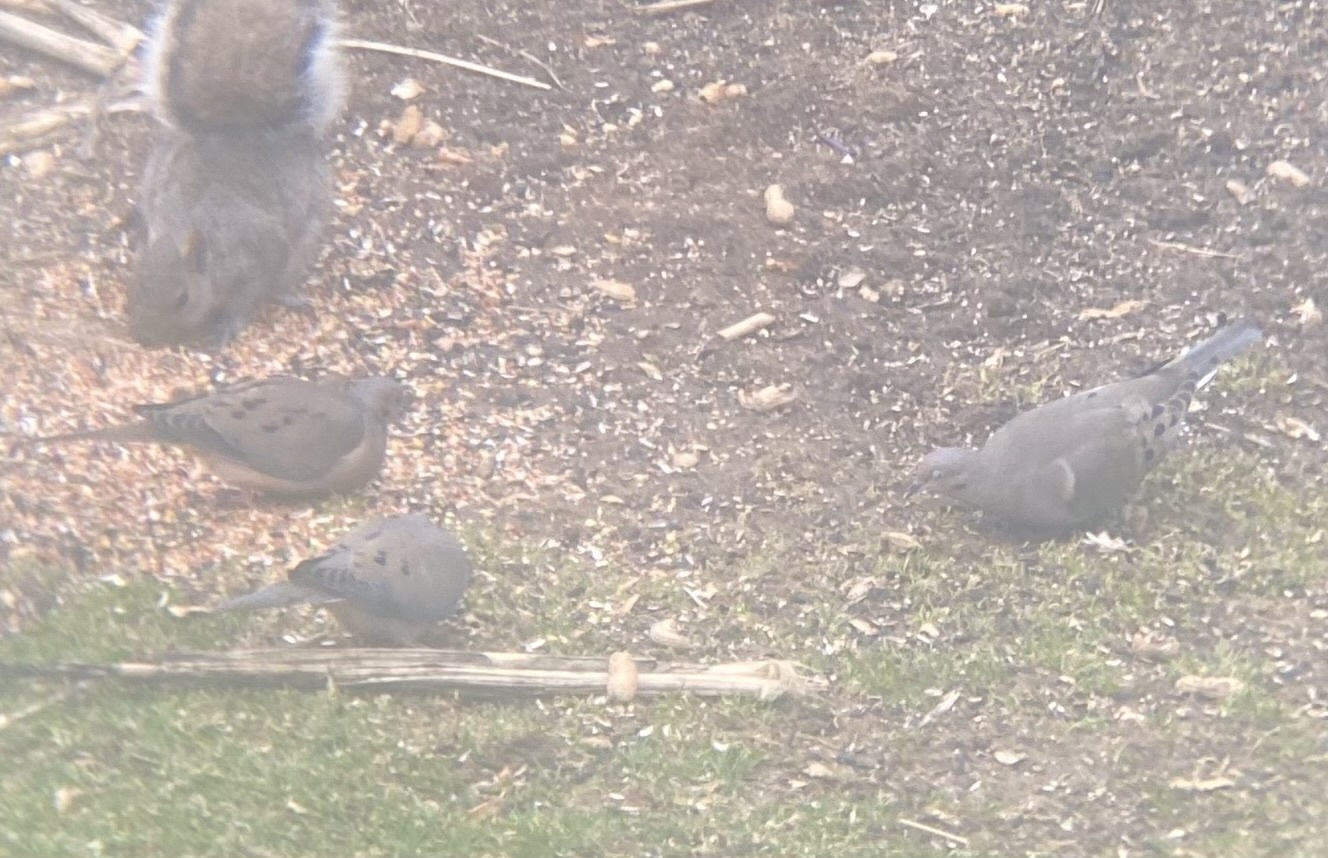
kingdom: Animalia
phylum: Chordata
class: Aves
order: Columbiformes
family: Columbidae
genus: Zenaida
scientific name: Zenaida macroura
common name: Mourning dove
